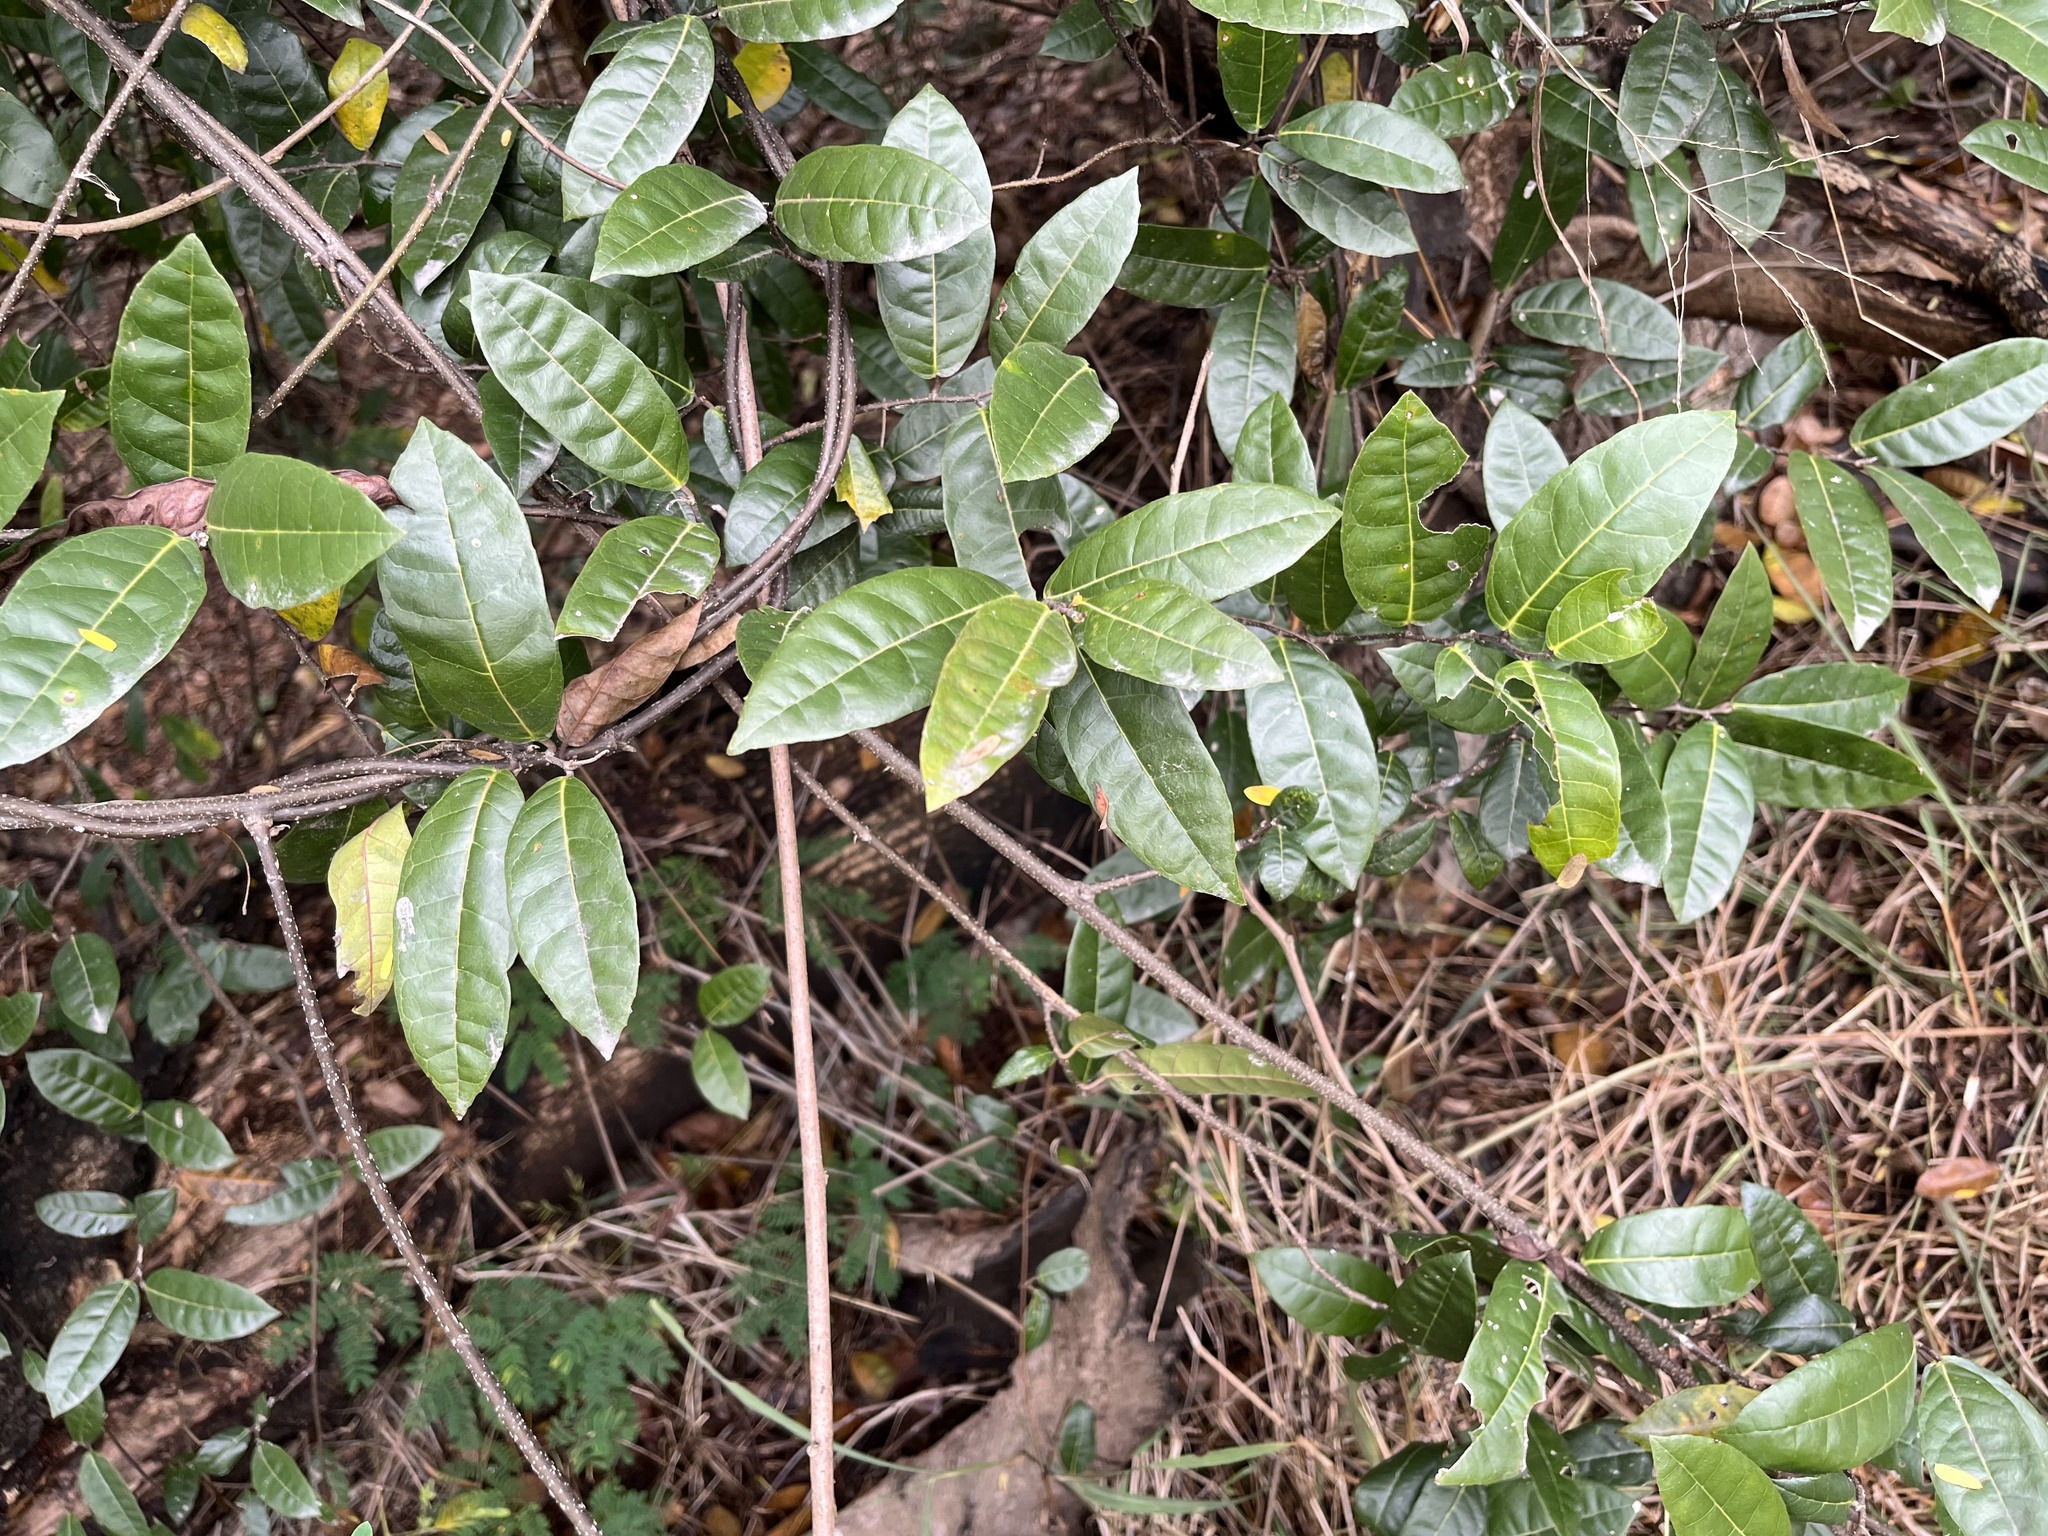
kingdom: Plantae
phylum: Tracheophyta
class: Magnoliopsida
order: Rosales
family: Moraceae
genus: Malaisia
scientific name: Malaisia scandens
